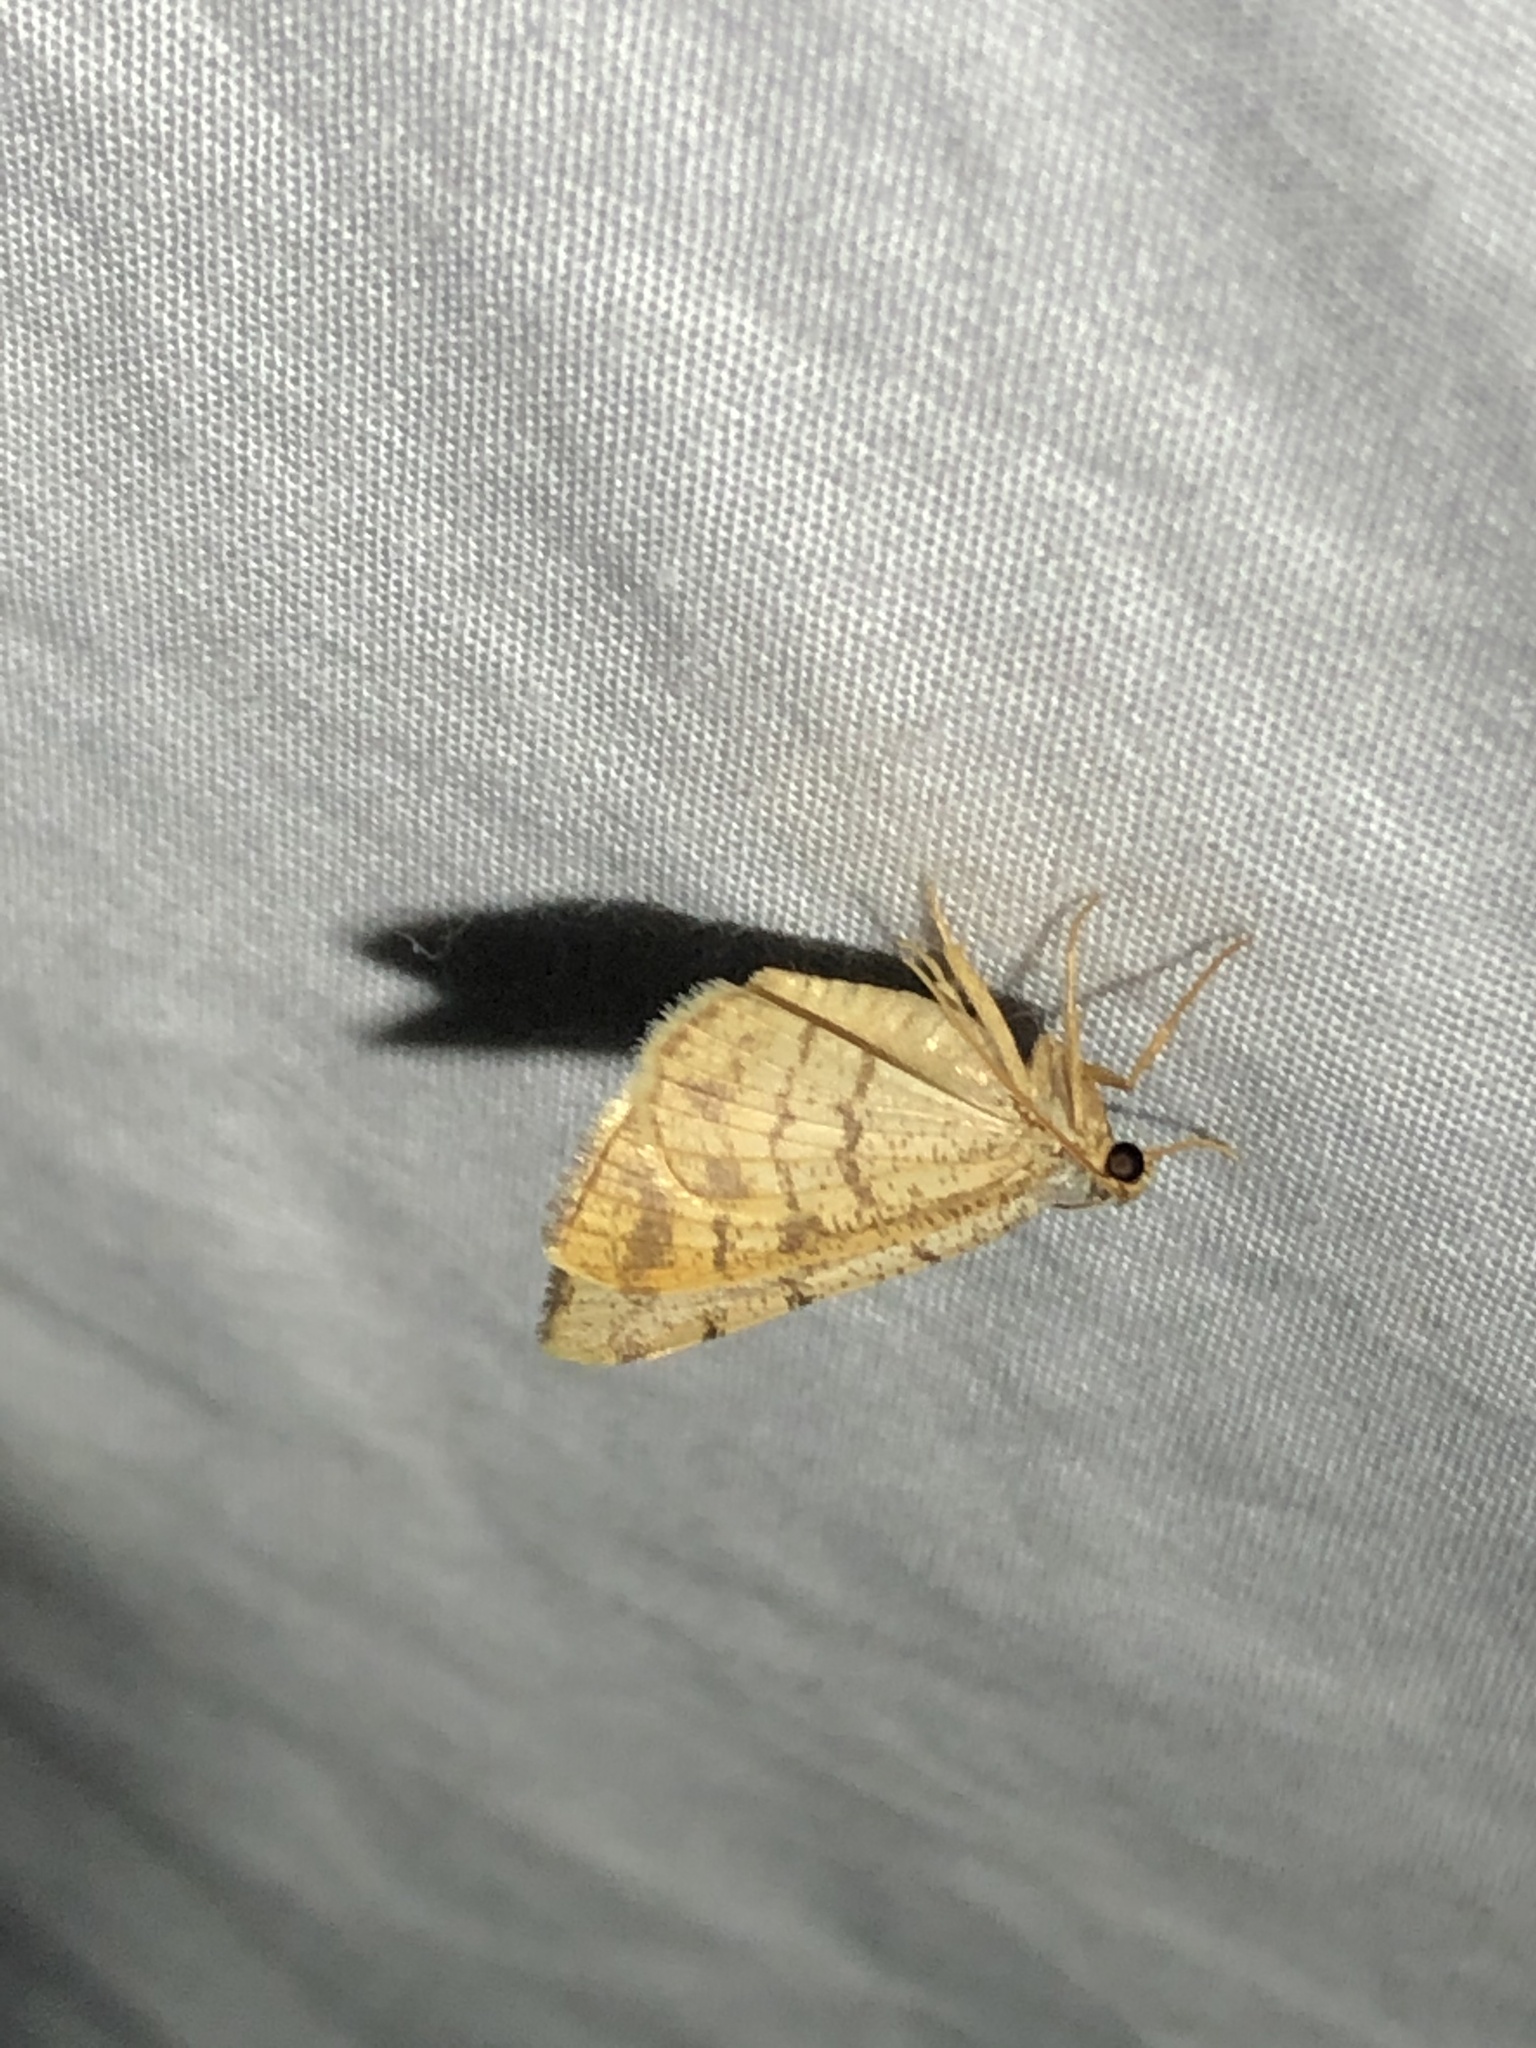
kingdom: Animalia
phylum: Arthropoda
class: Insecta
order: Lepidoptera
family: Geometridae
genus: Macaria
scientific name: Macaria octolineata
